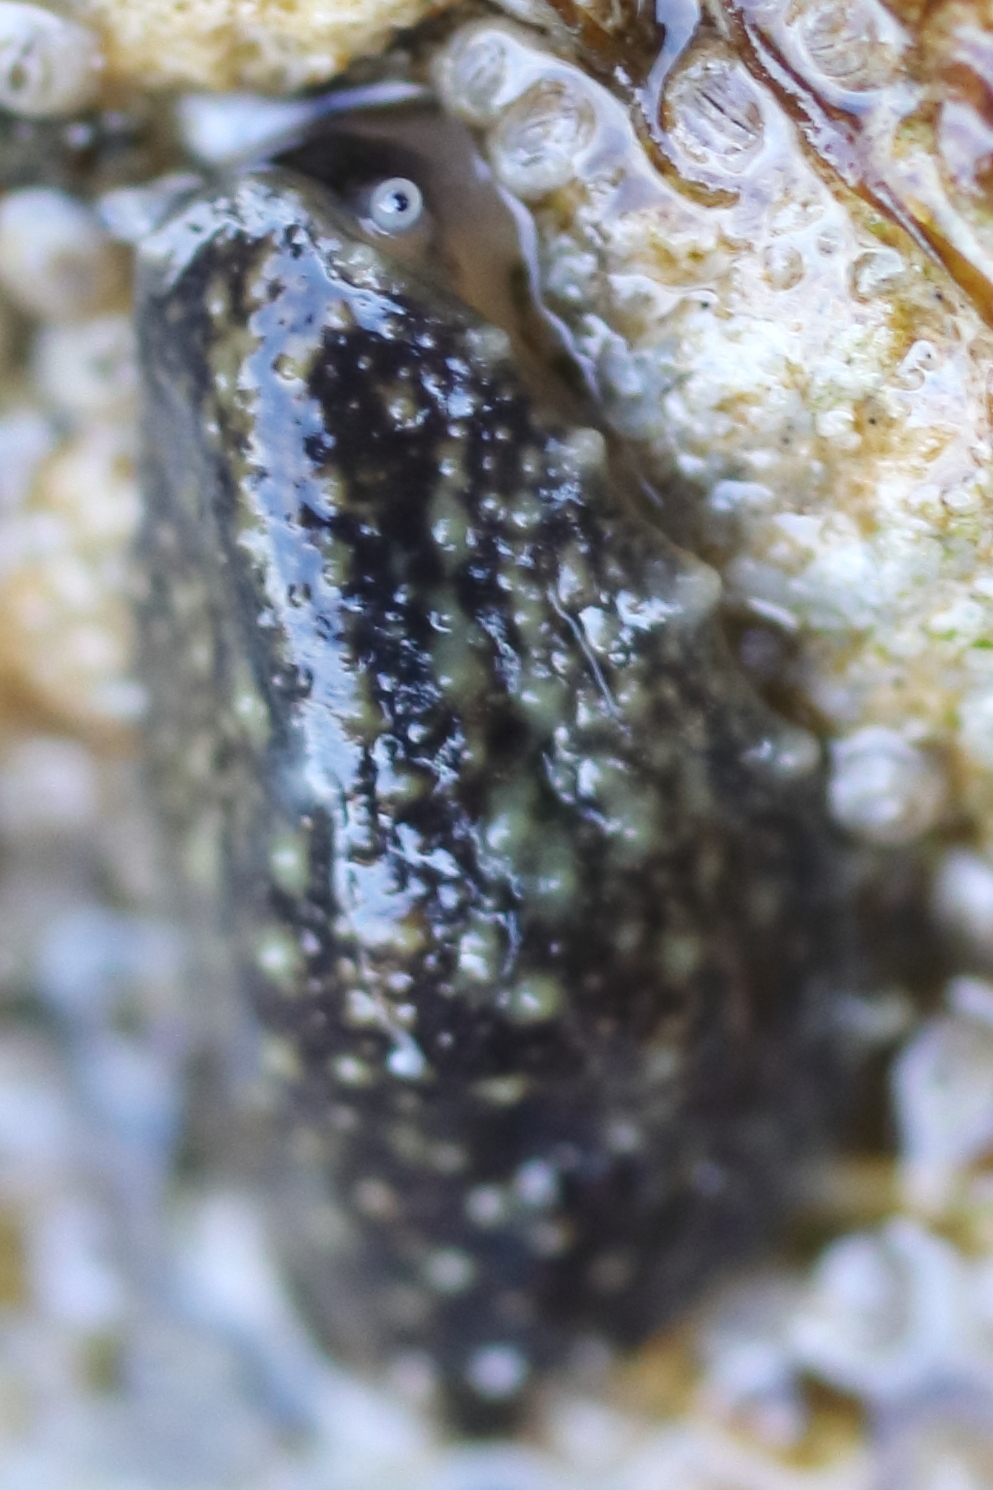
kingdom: Animalia
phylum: Mollusca
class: Gastropoda
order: Systellommatophora
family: Onchidiidae
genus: Onchidella
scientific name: Onchidella carpenteri
